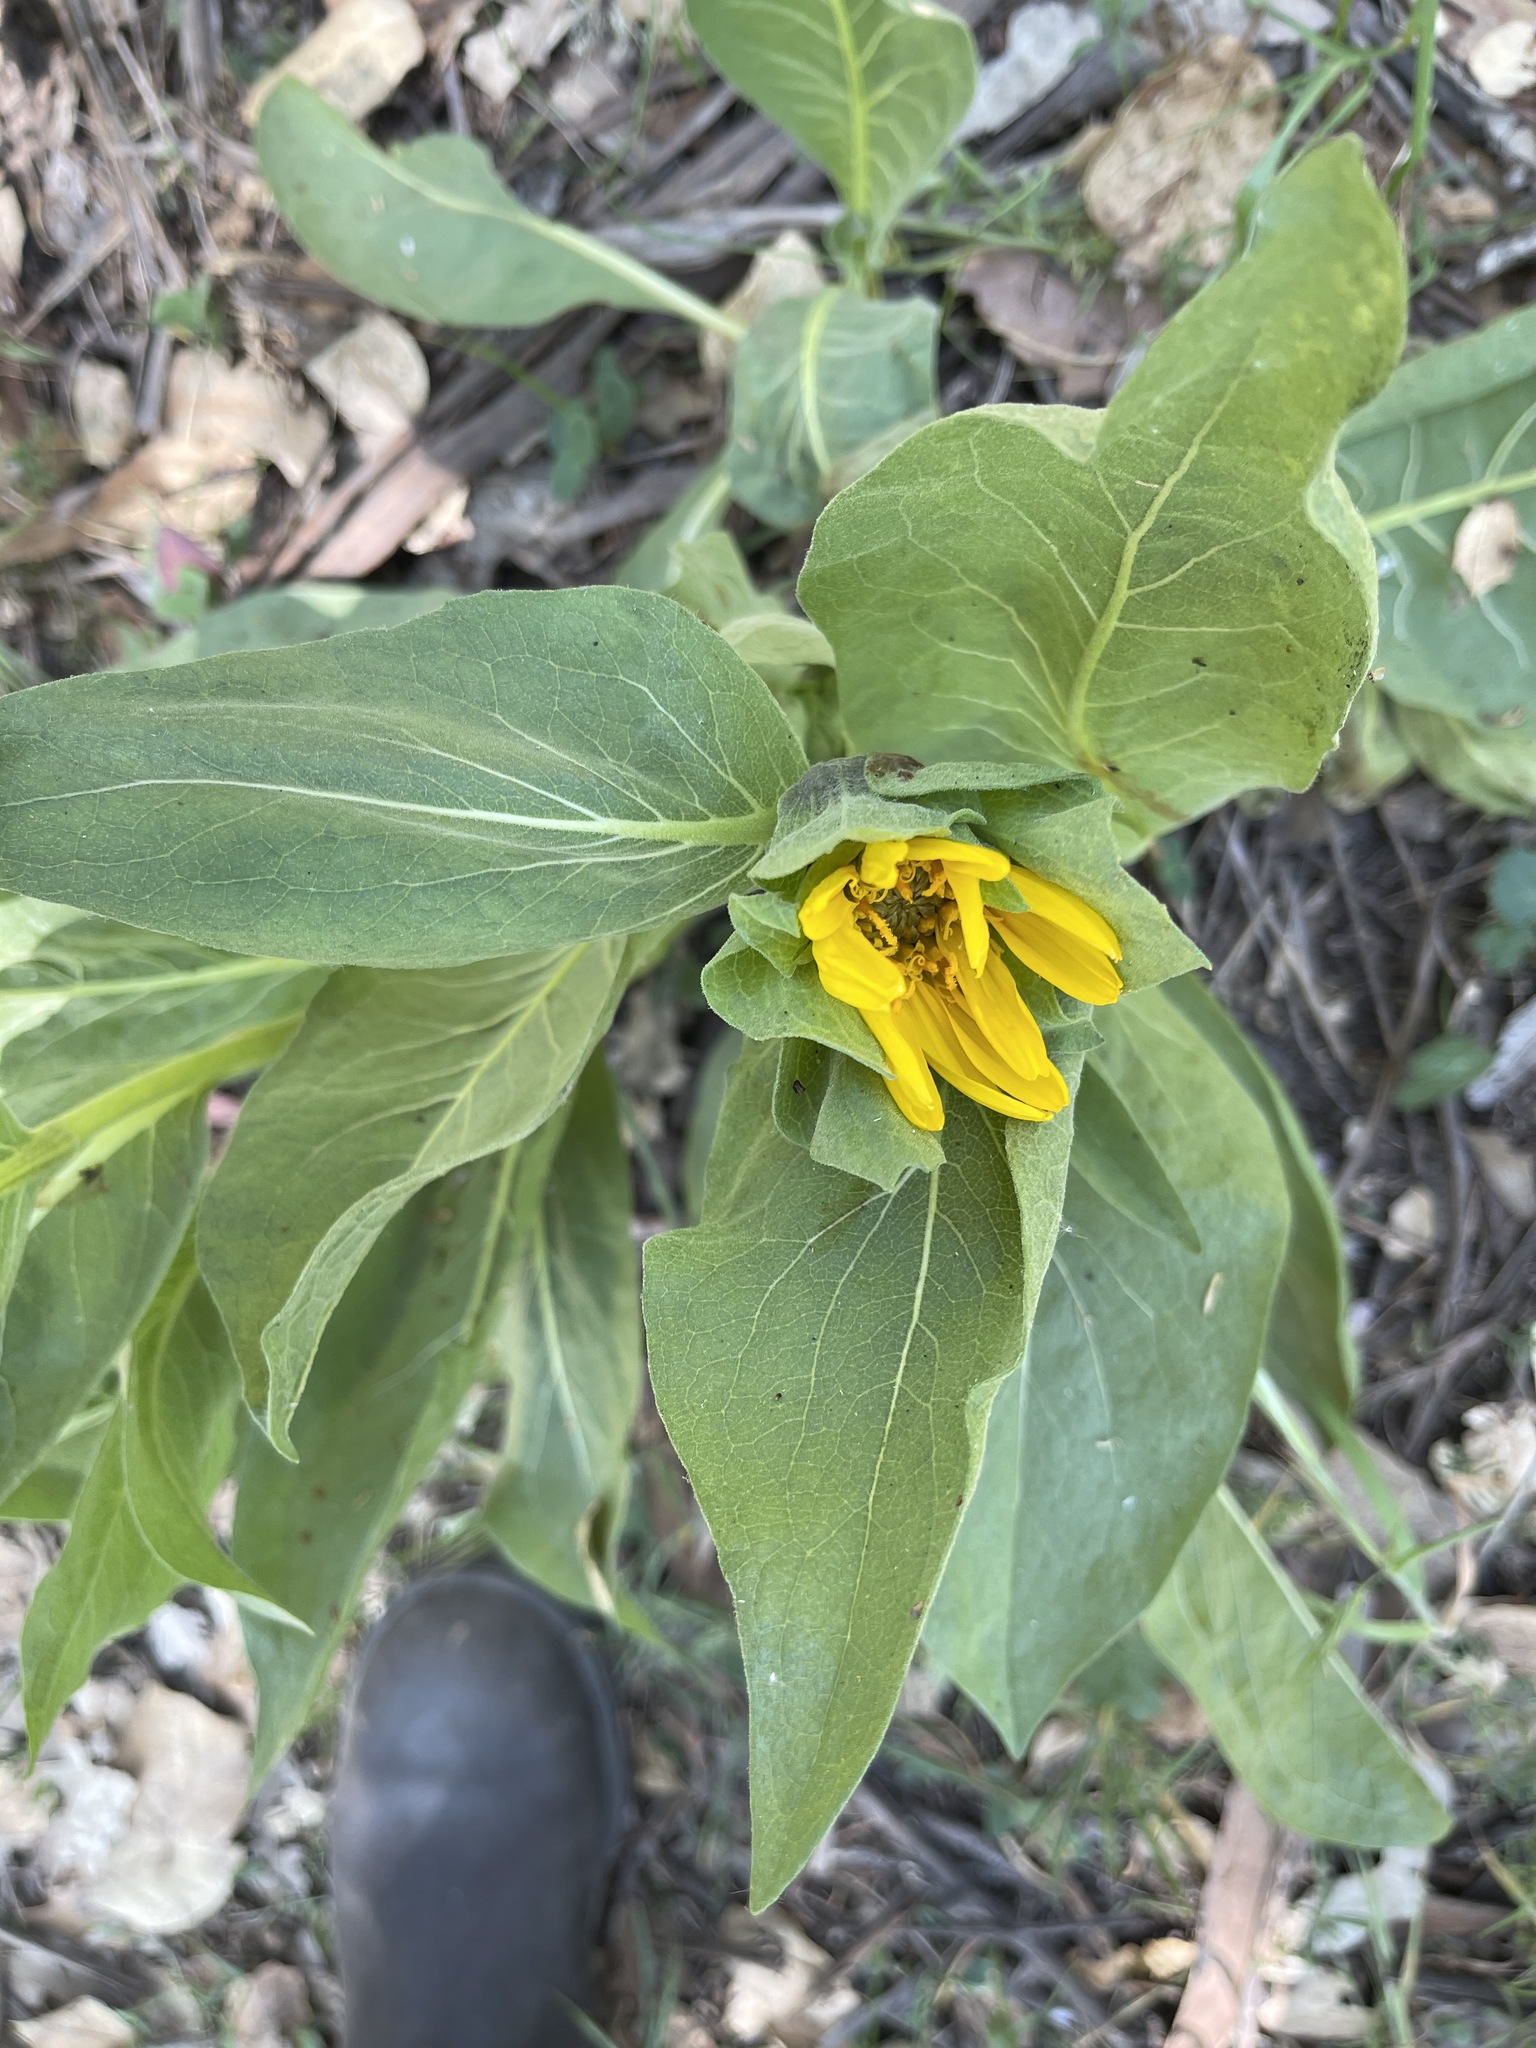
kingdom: Plantae
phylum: Tracheophyta
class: Magnoliopsida
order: Asterales
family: Asteraceae
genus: Wyethia
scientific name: Wyethia glabra
